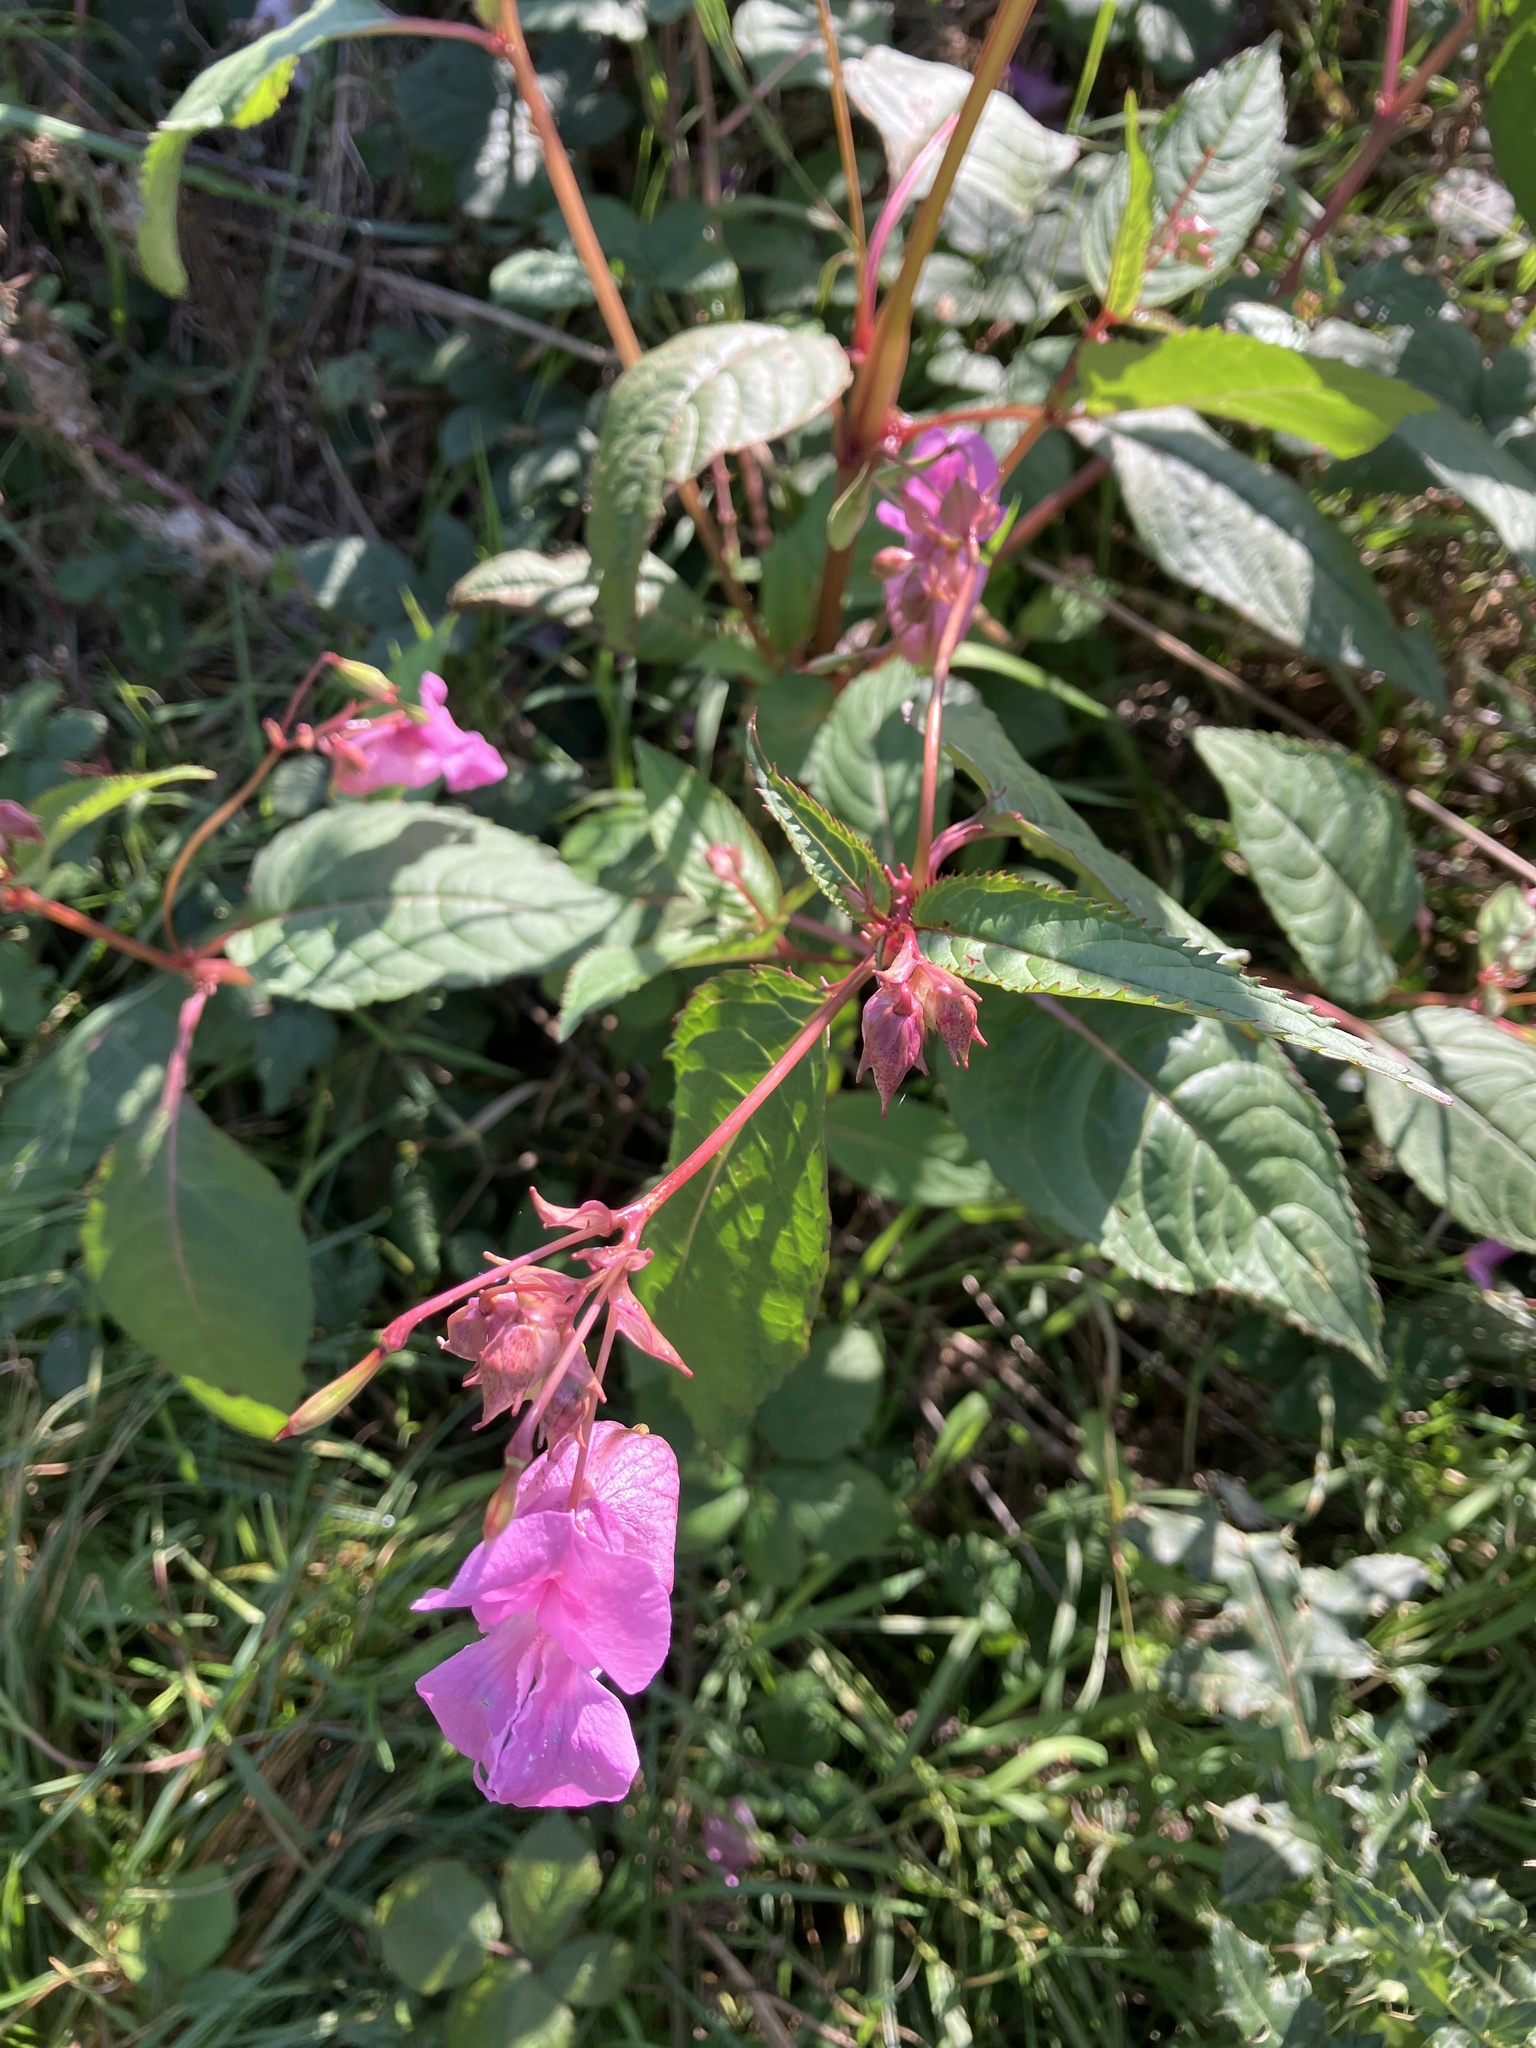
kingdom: Plantae
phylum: Tracheophyta
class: Magnoliopsida
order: Ericales
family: Balsaminaceae
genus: Impatiens
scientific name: Impatiens glandulifera
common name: Himalayan balsam
